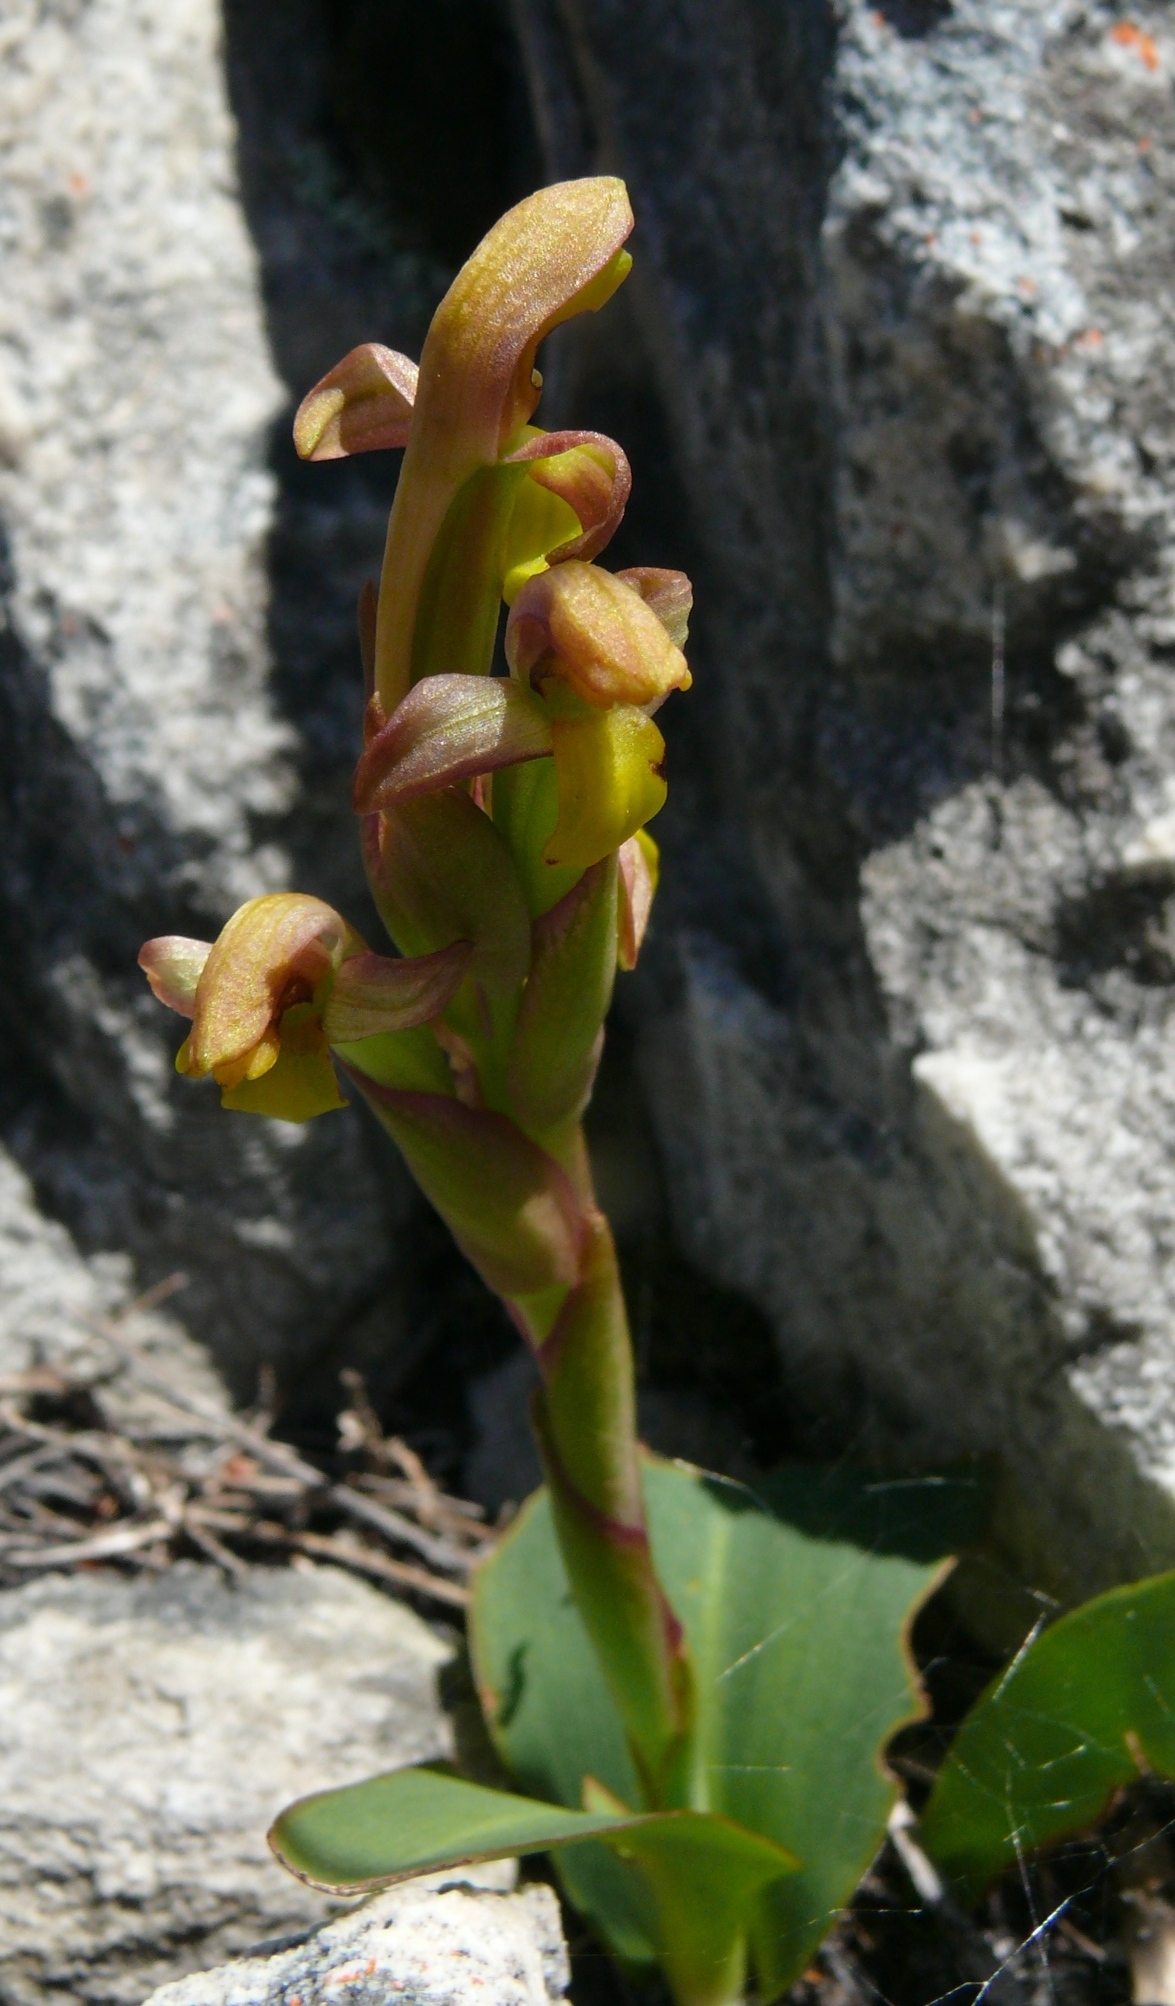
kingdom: Plantae
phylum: Tracheophyta
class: Liliopsida
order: Asparagales
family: Orchidaceae
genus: Disa
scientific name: Disa comosa
